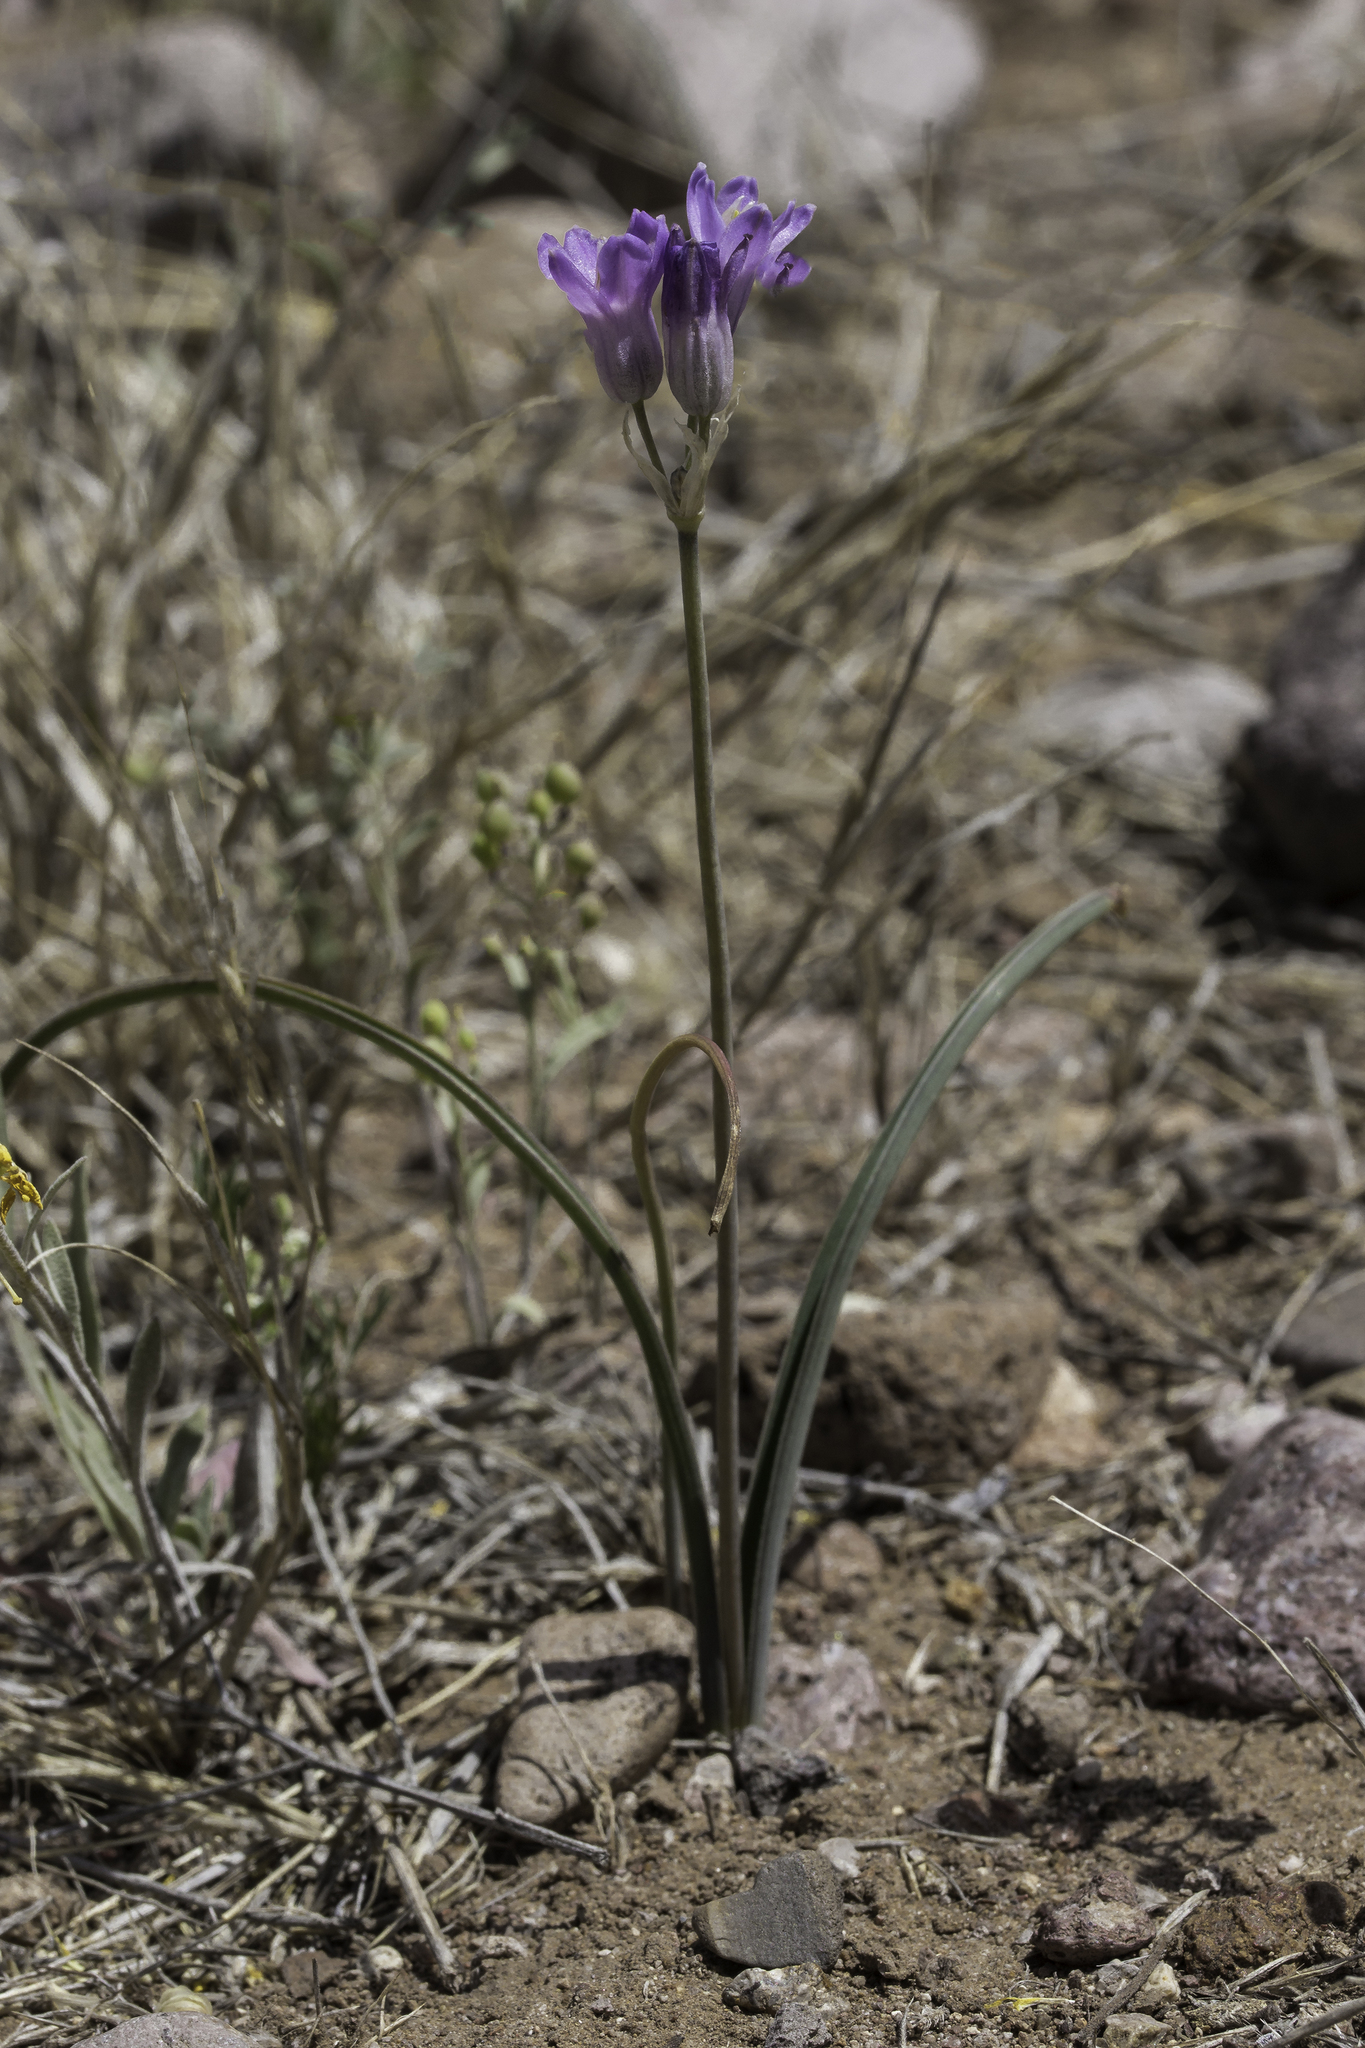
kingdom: Plantae
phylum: Tracheophyta
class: Liliopsida
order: Asparagales
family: Asparagaceae
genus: Dipterostemon
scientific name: Dipterostemon capitatus
